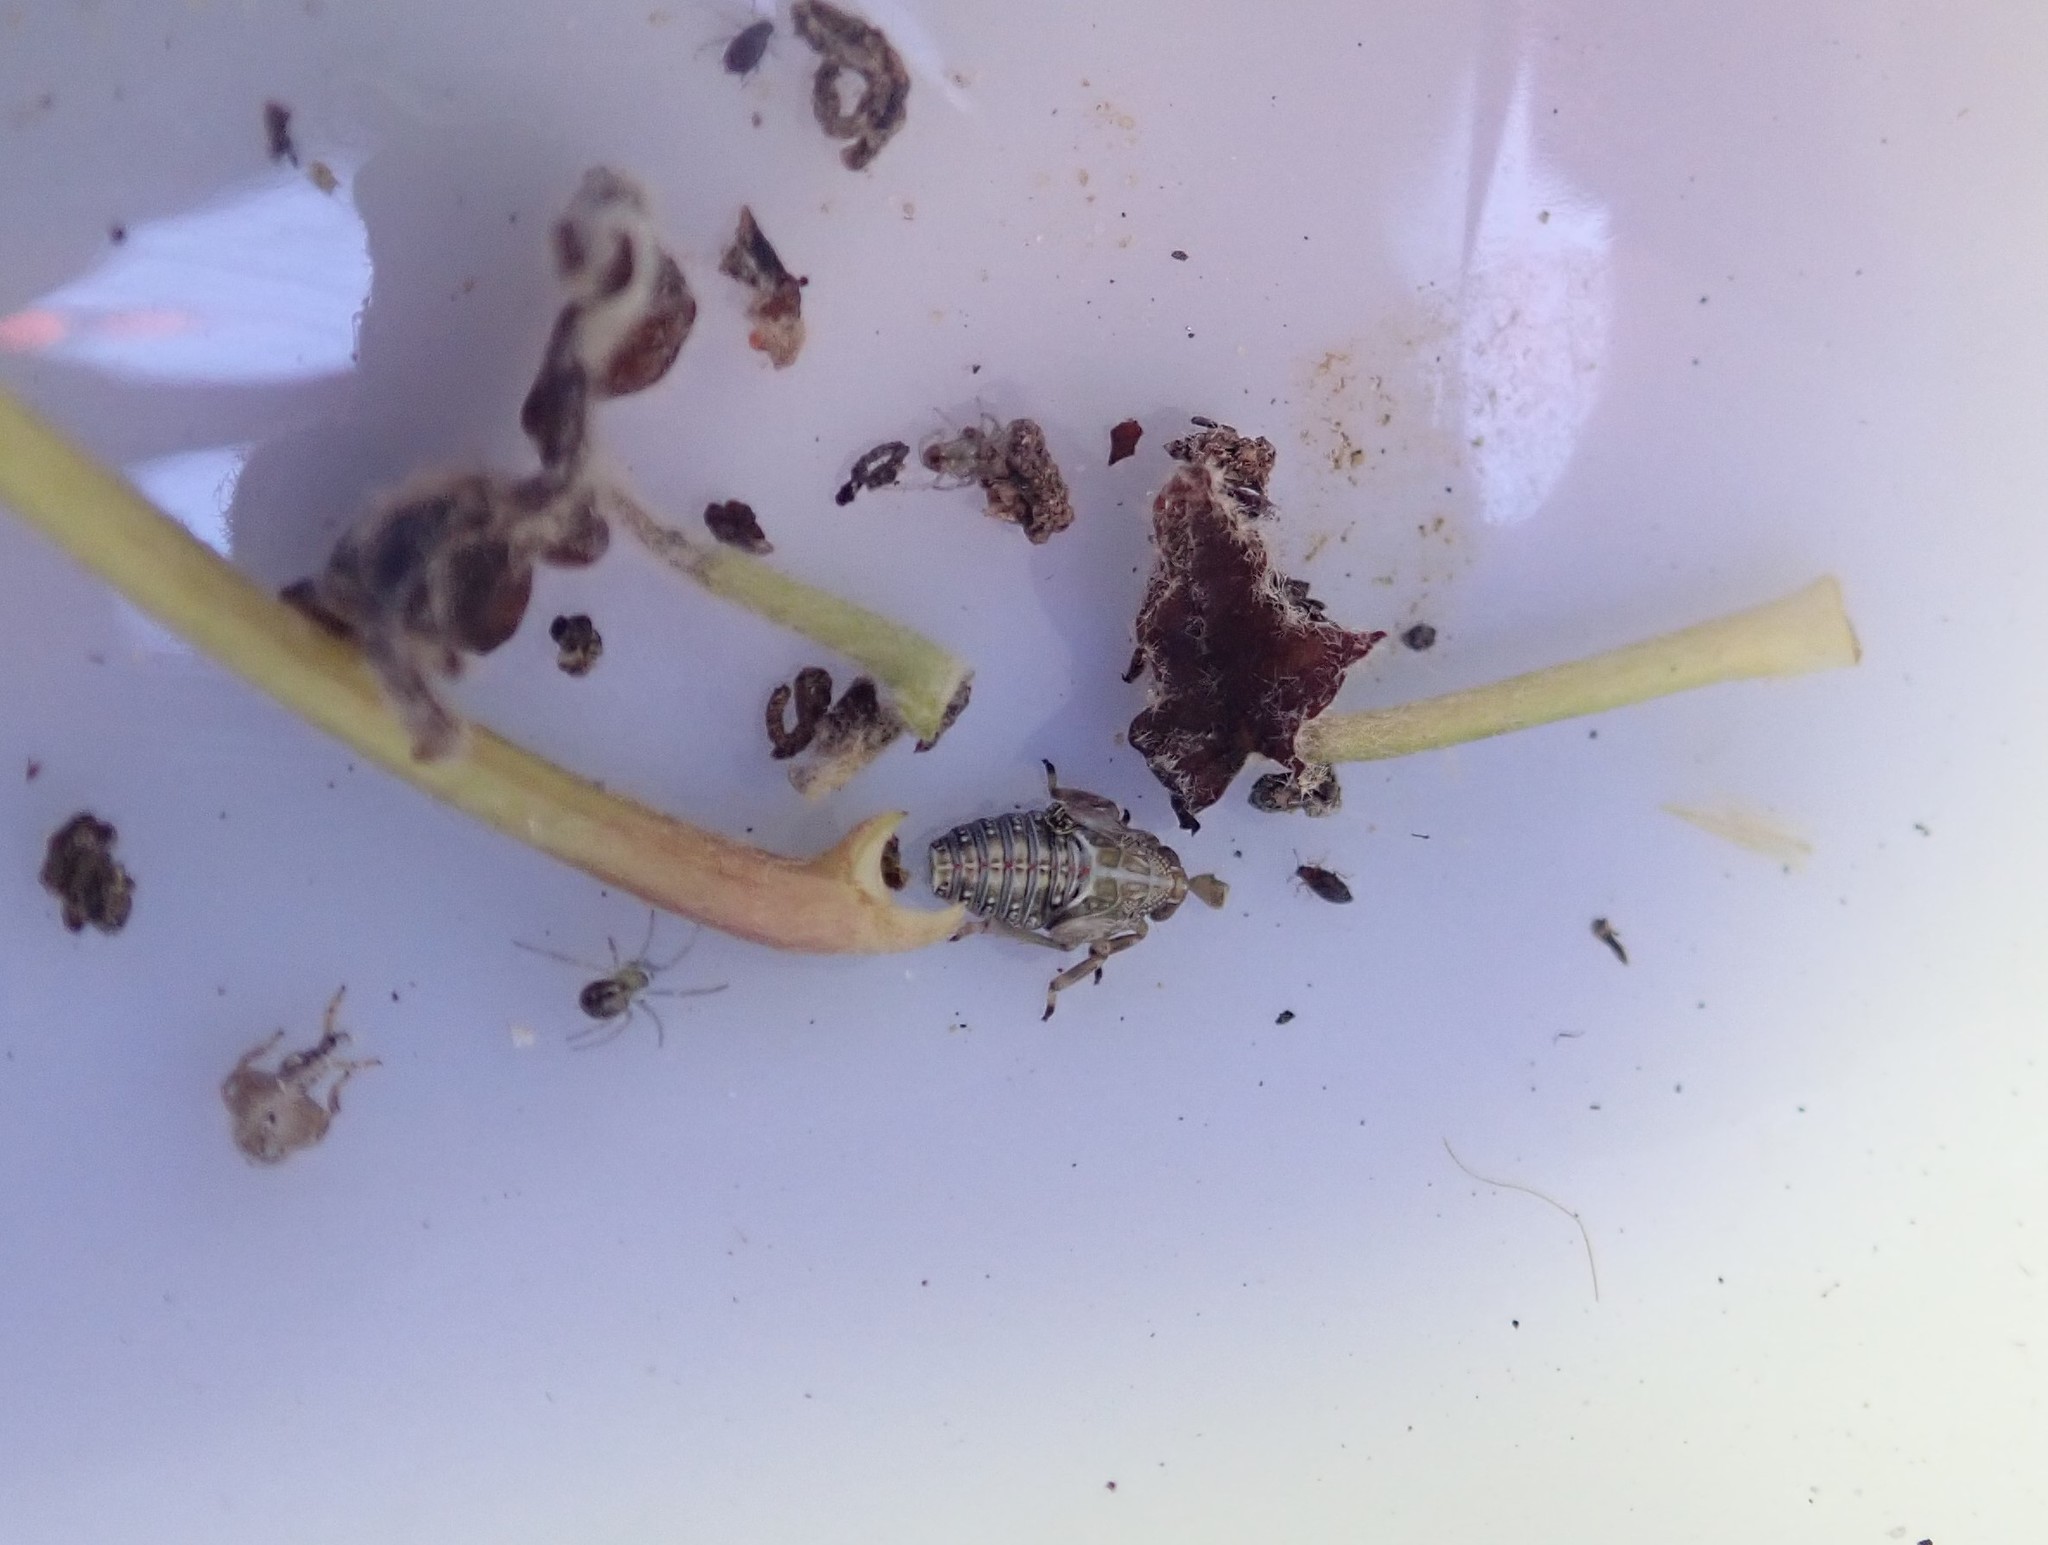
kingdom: Animalia
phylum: Arthropoda
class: Insecta
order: Hemiptera
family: Issidae
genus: Issus
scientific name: Issus coleoptratus
